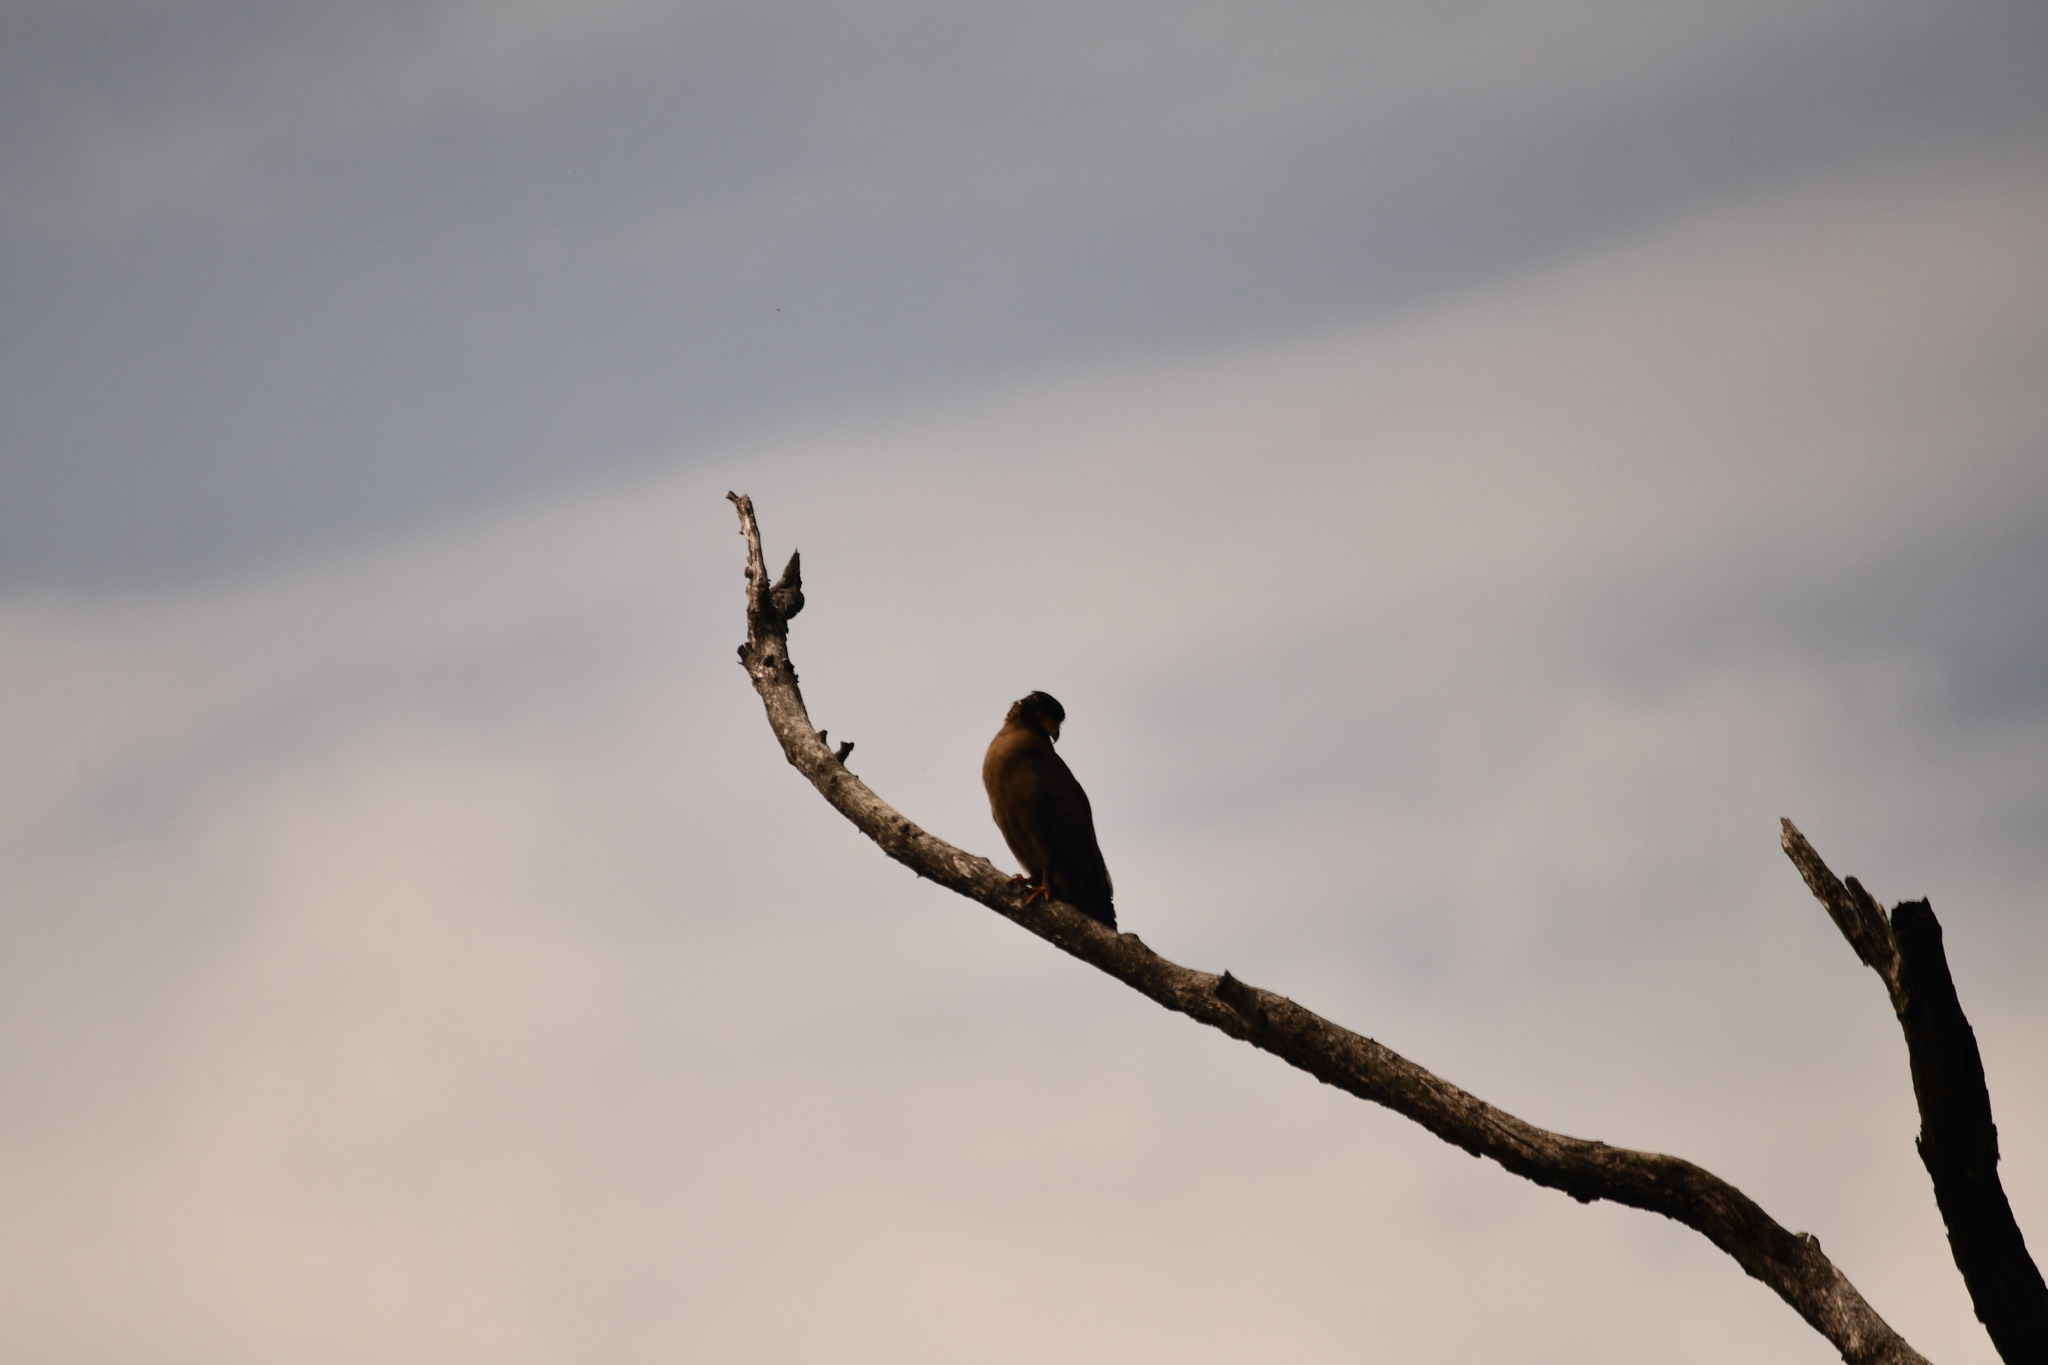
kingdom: Animalia
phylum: Chordata
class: Aves
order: Accipitriformes
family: Accipitridae
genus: Spilornis
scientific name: Spilornis cheela
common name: Crested serpent eagle
